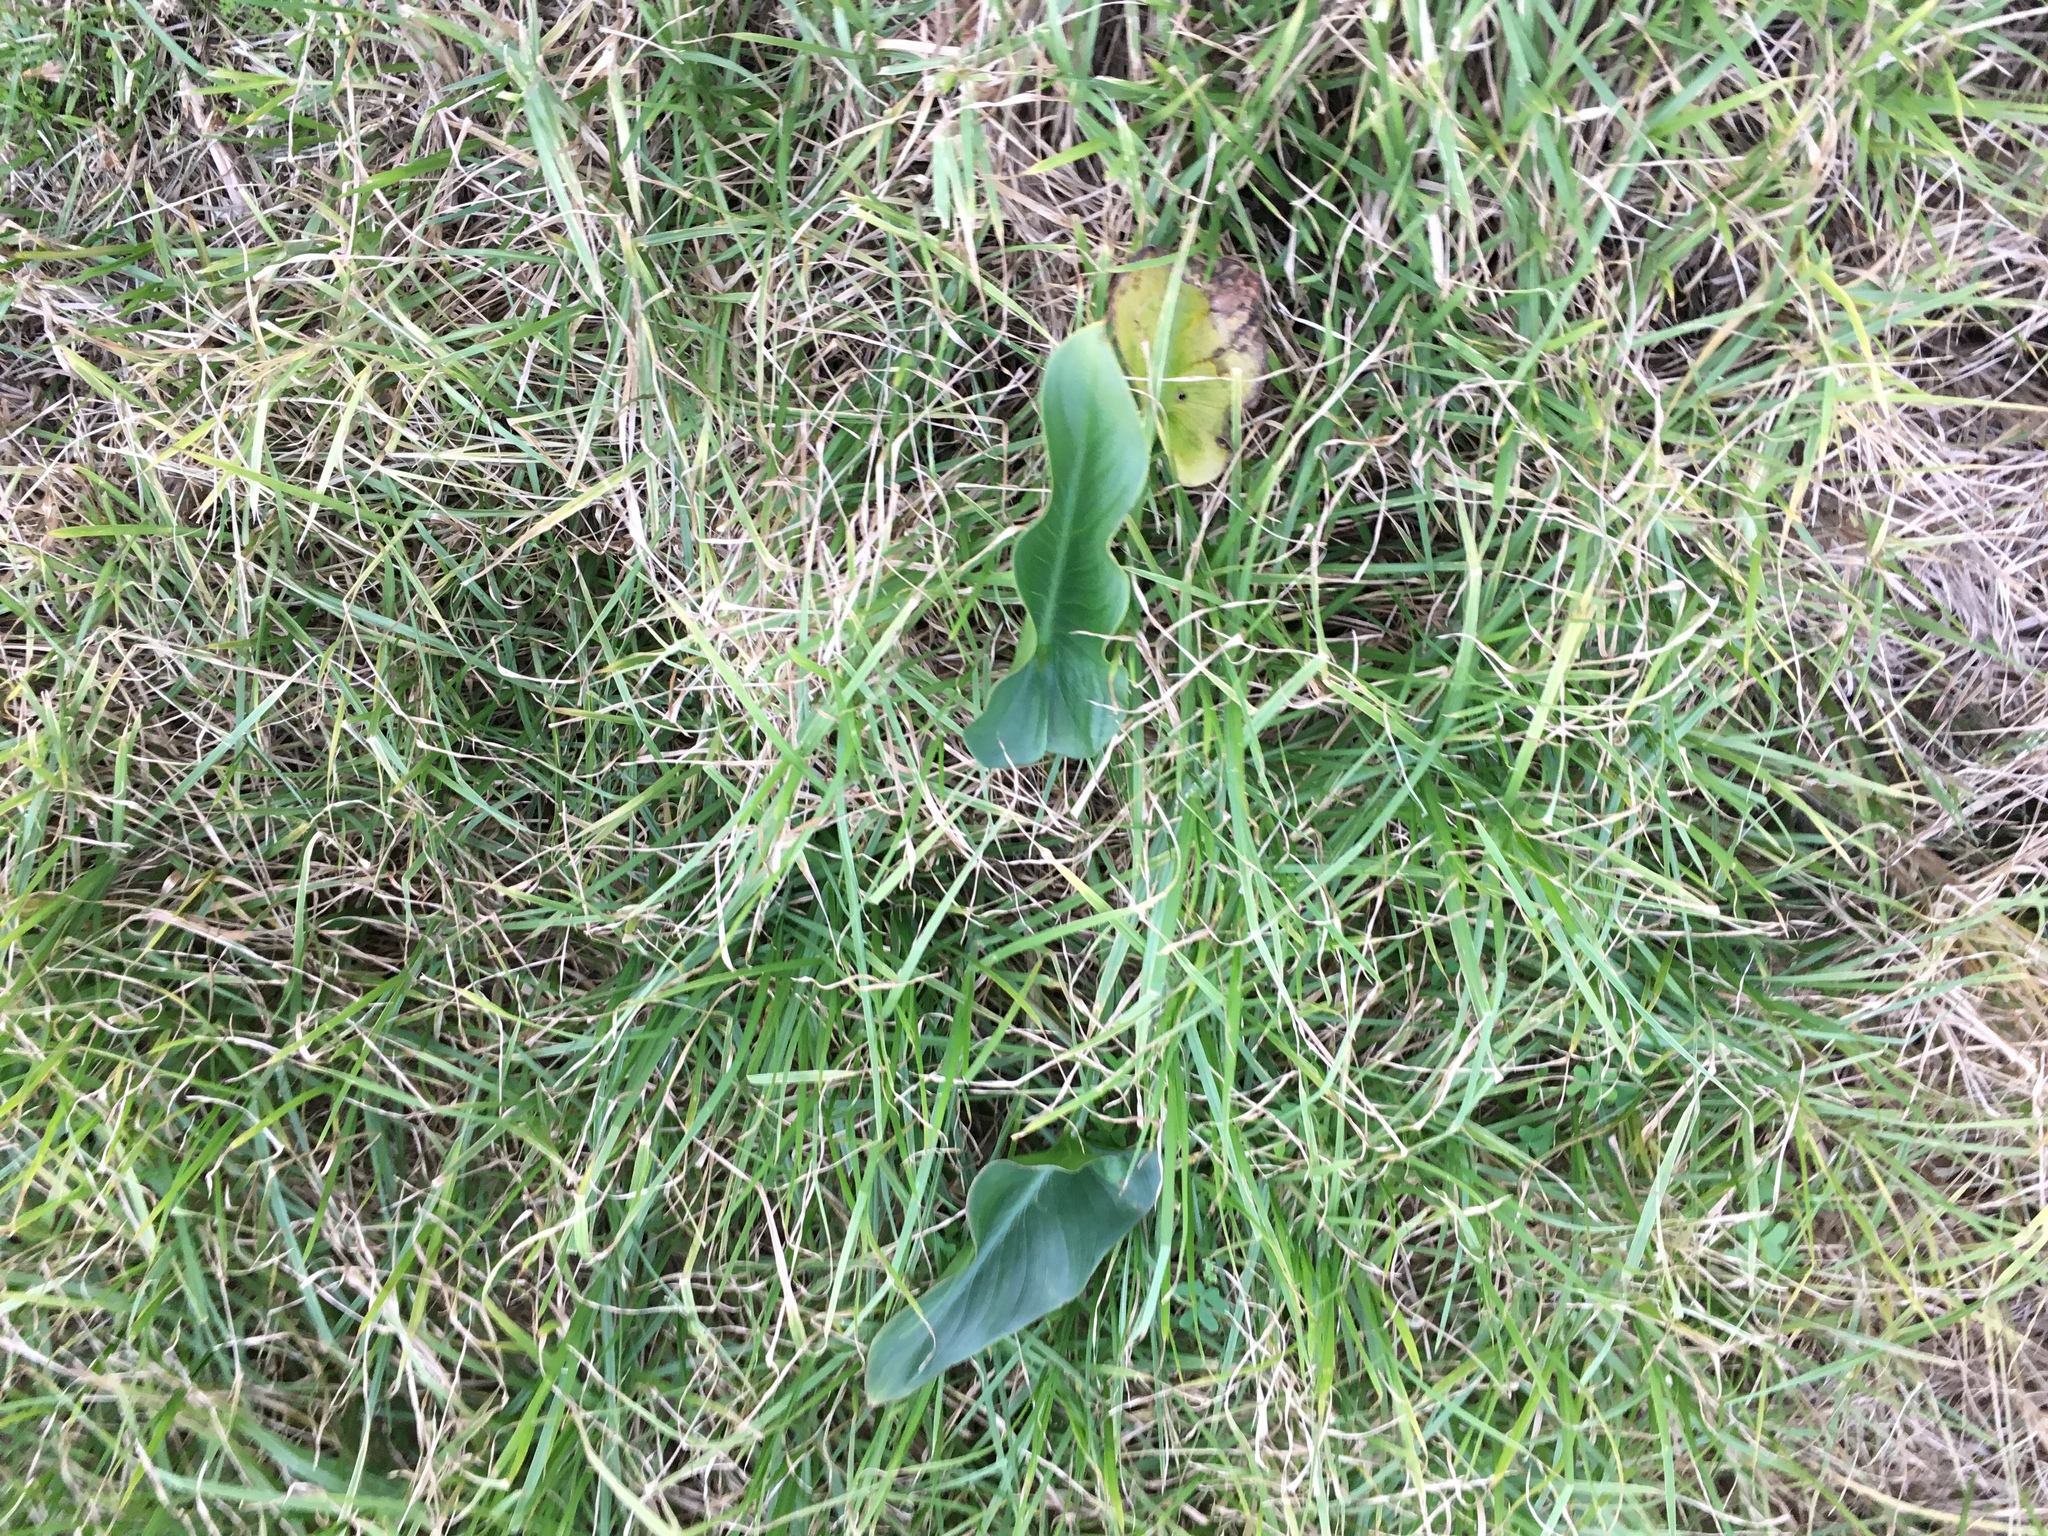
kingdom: Plantae
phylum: Tracheophyta
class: Liliopsida
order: Alismatales
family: Araceae
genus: Zantedeschia
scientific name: Zantedeschia aethiopica
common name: Altar-lily
